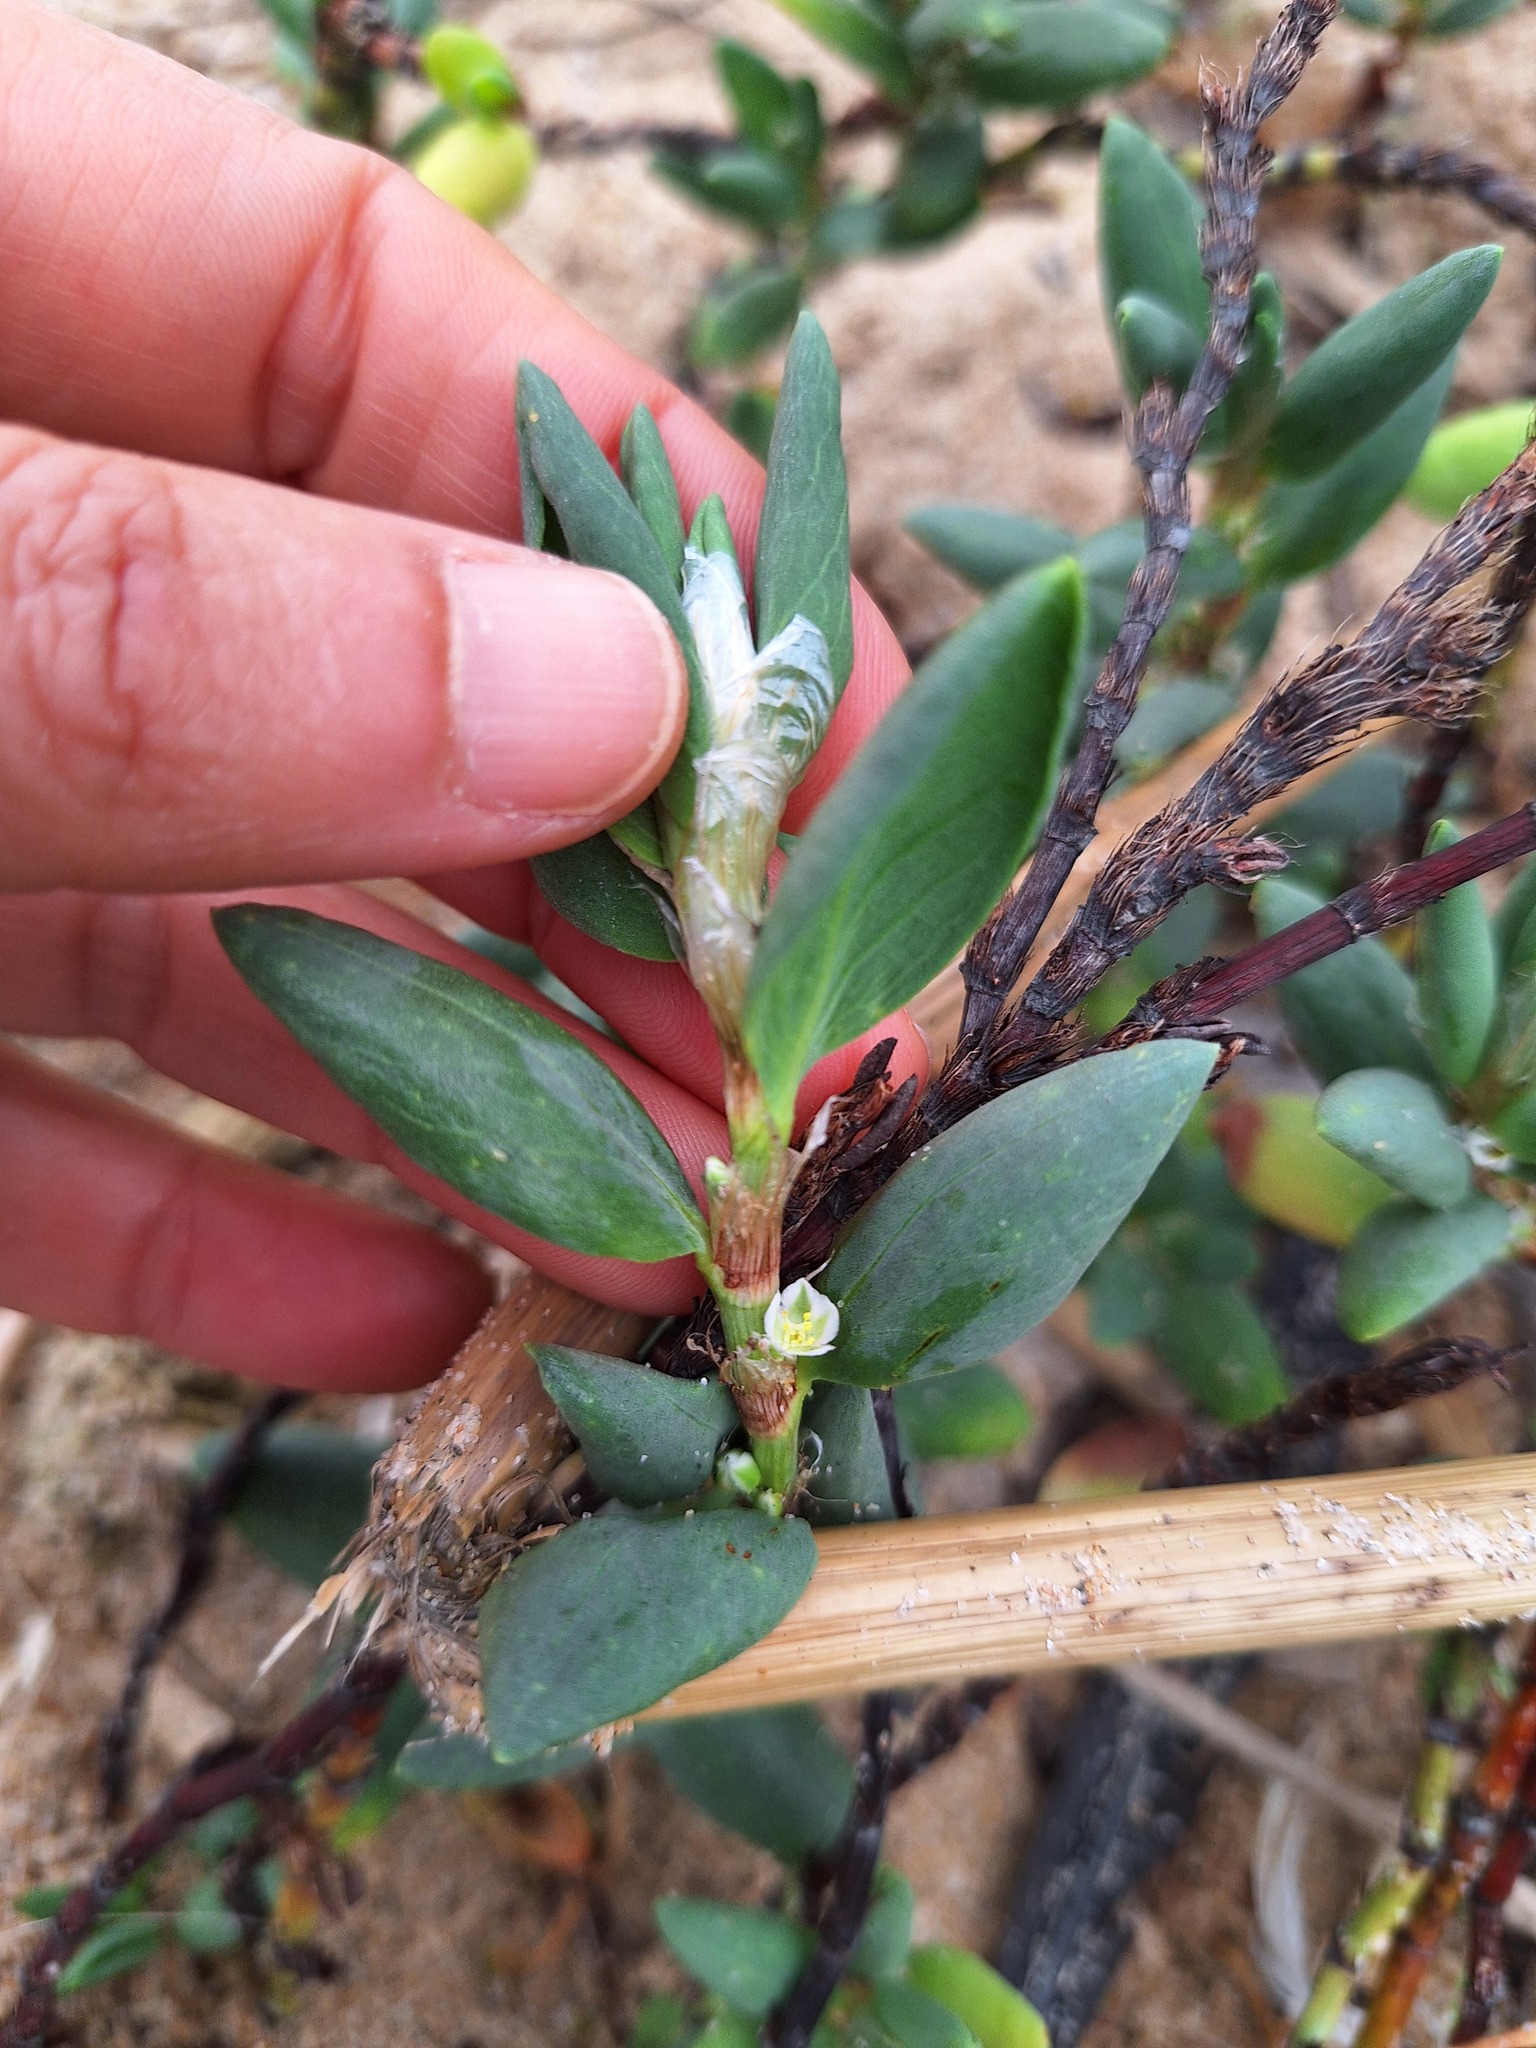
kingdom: Plantae
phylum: Tracheophyta
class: Magnoliopsida
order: Caryophyllales
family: Polygonaceae
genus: Polygonum
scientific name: Polygonum maritimum
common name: Sea knotgrass
